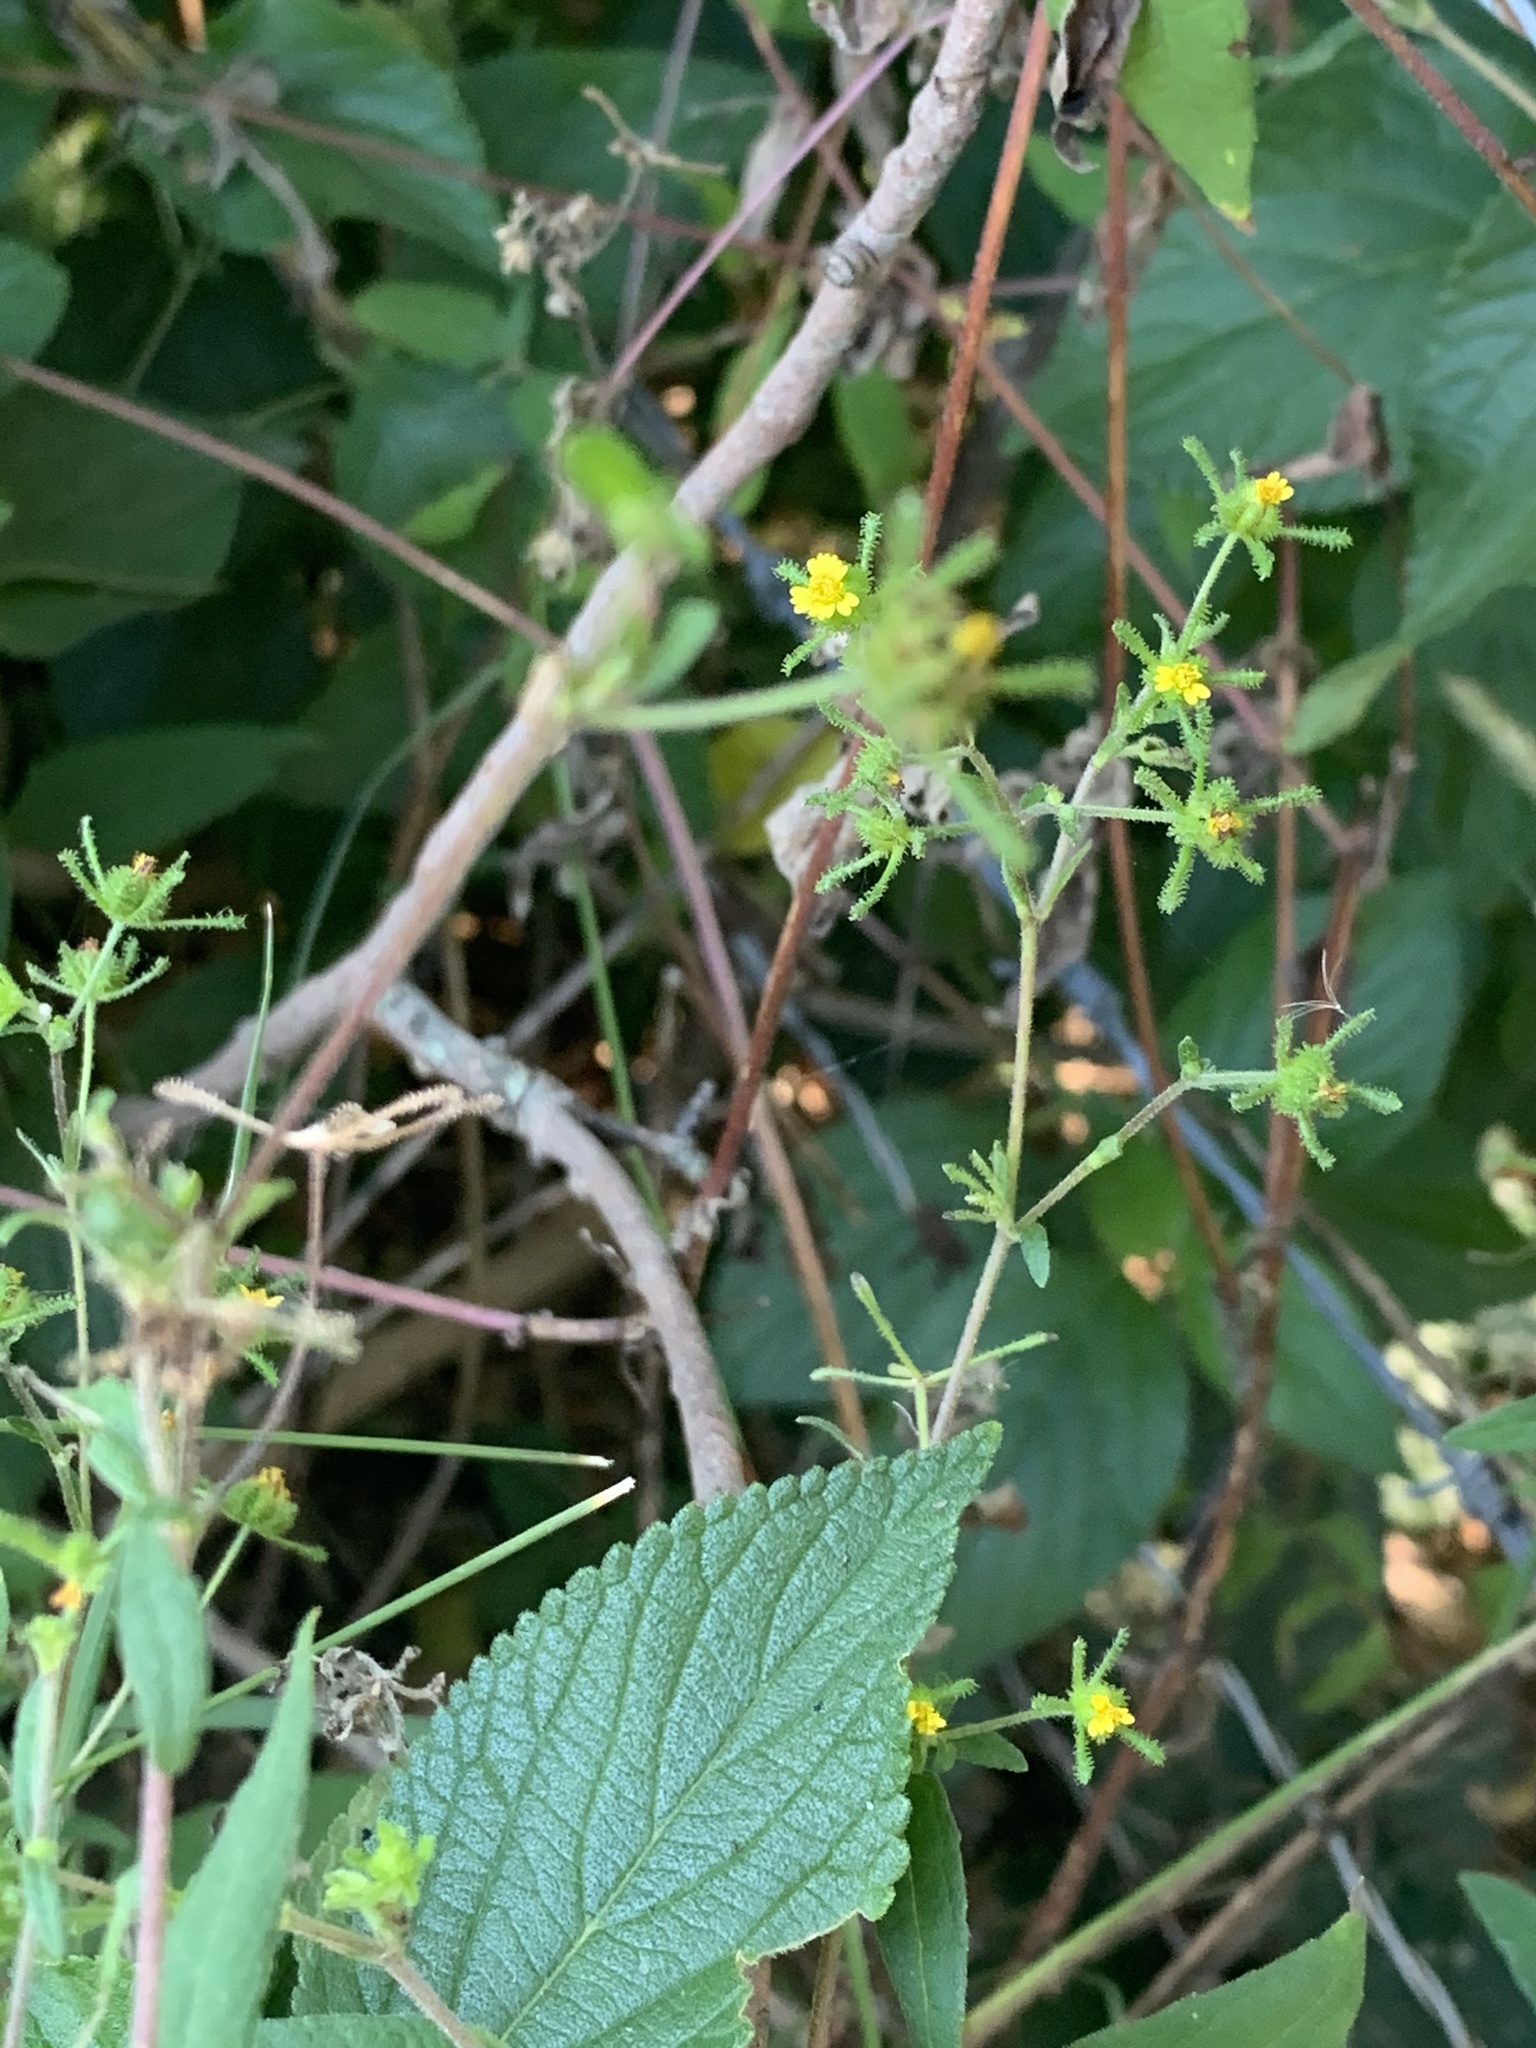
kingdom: Plantae
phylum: Tracheophyta
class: Magnoliopsida
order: Asterales
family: Asteraceae
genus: Sigesbeckia
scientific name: Sigesbeckia orientalis
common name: Eastern st paul's-wort
